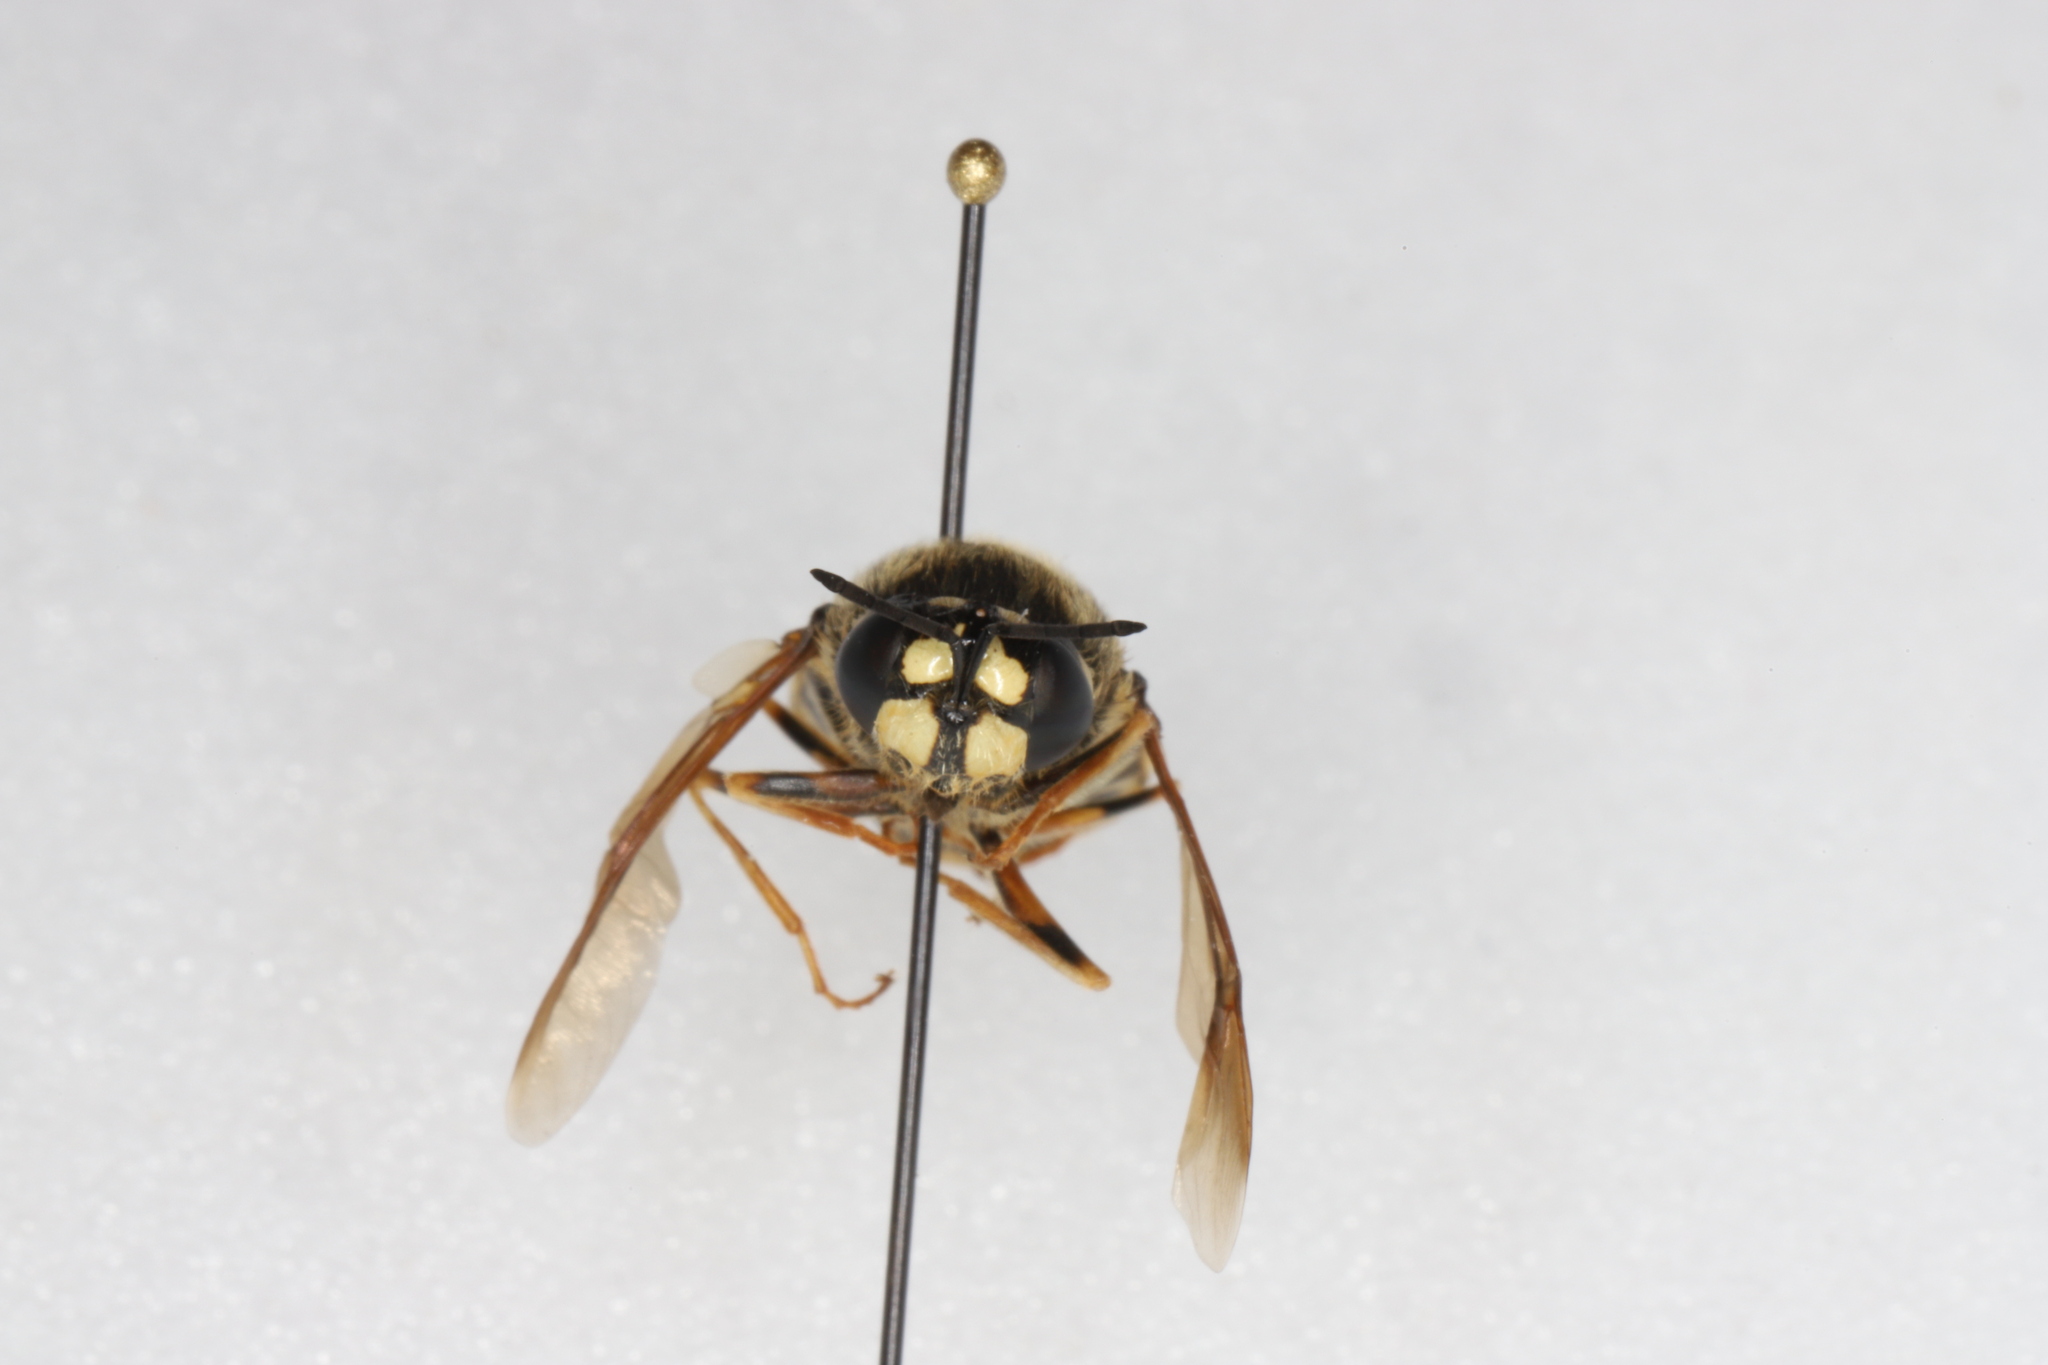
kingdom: Animalia
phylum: Arthropoda
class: Insecta
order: Diptera
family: Stratiomyidae
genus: Stratiomys
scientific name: Stratiomys badia
